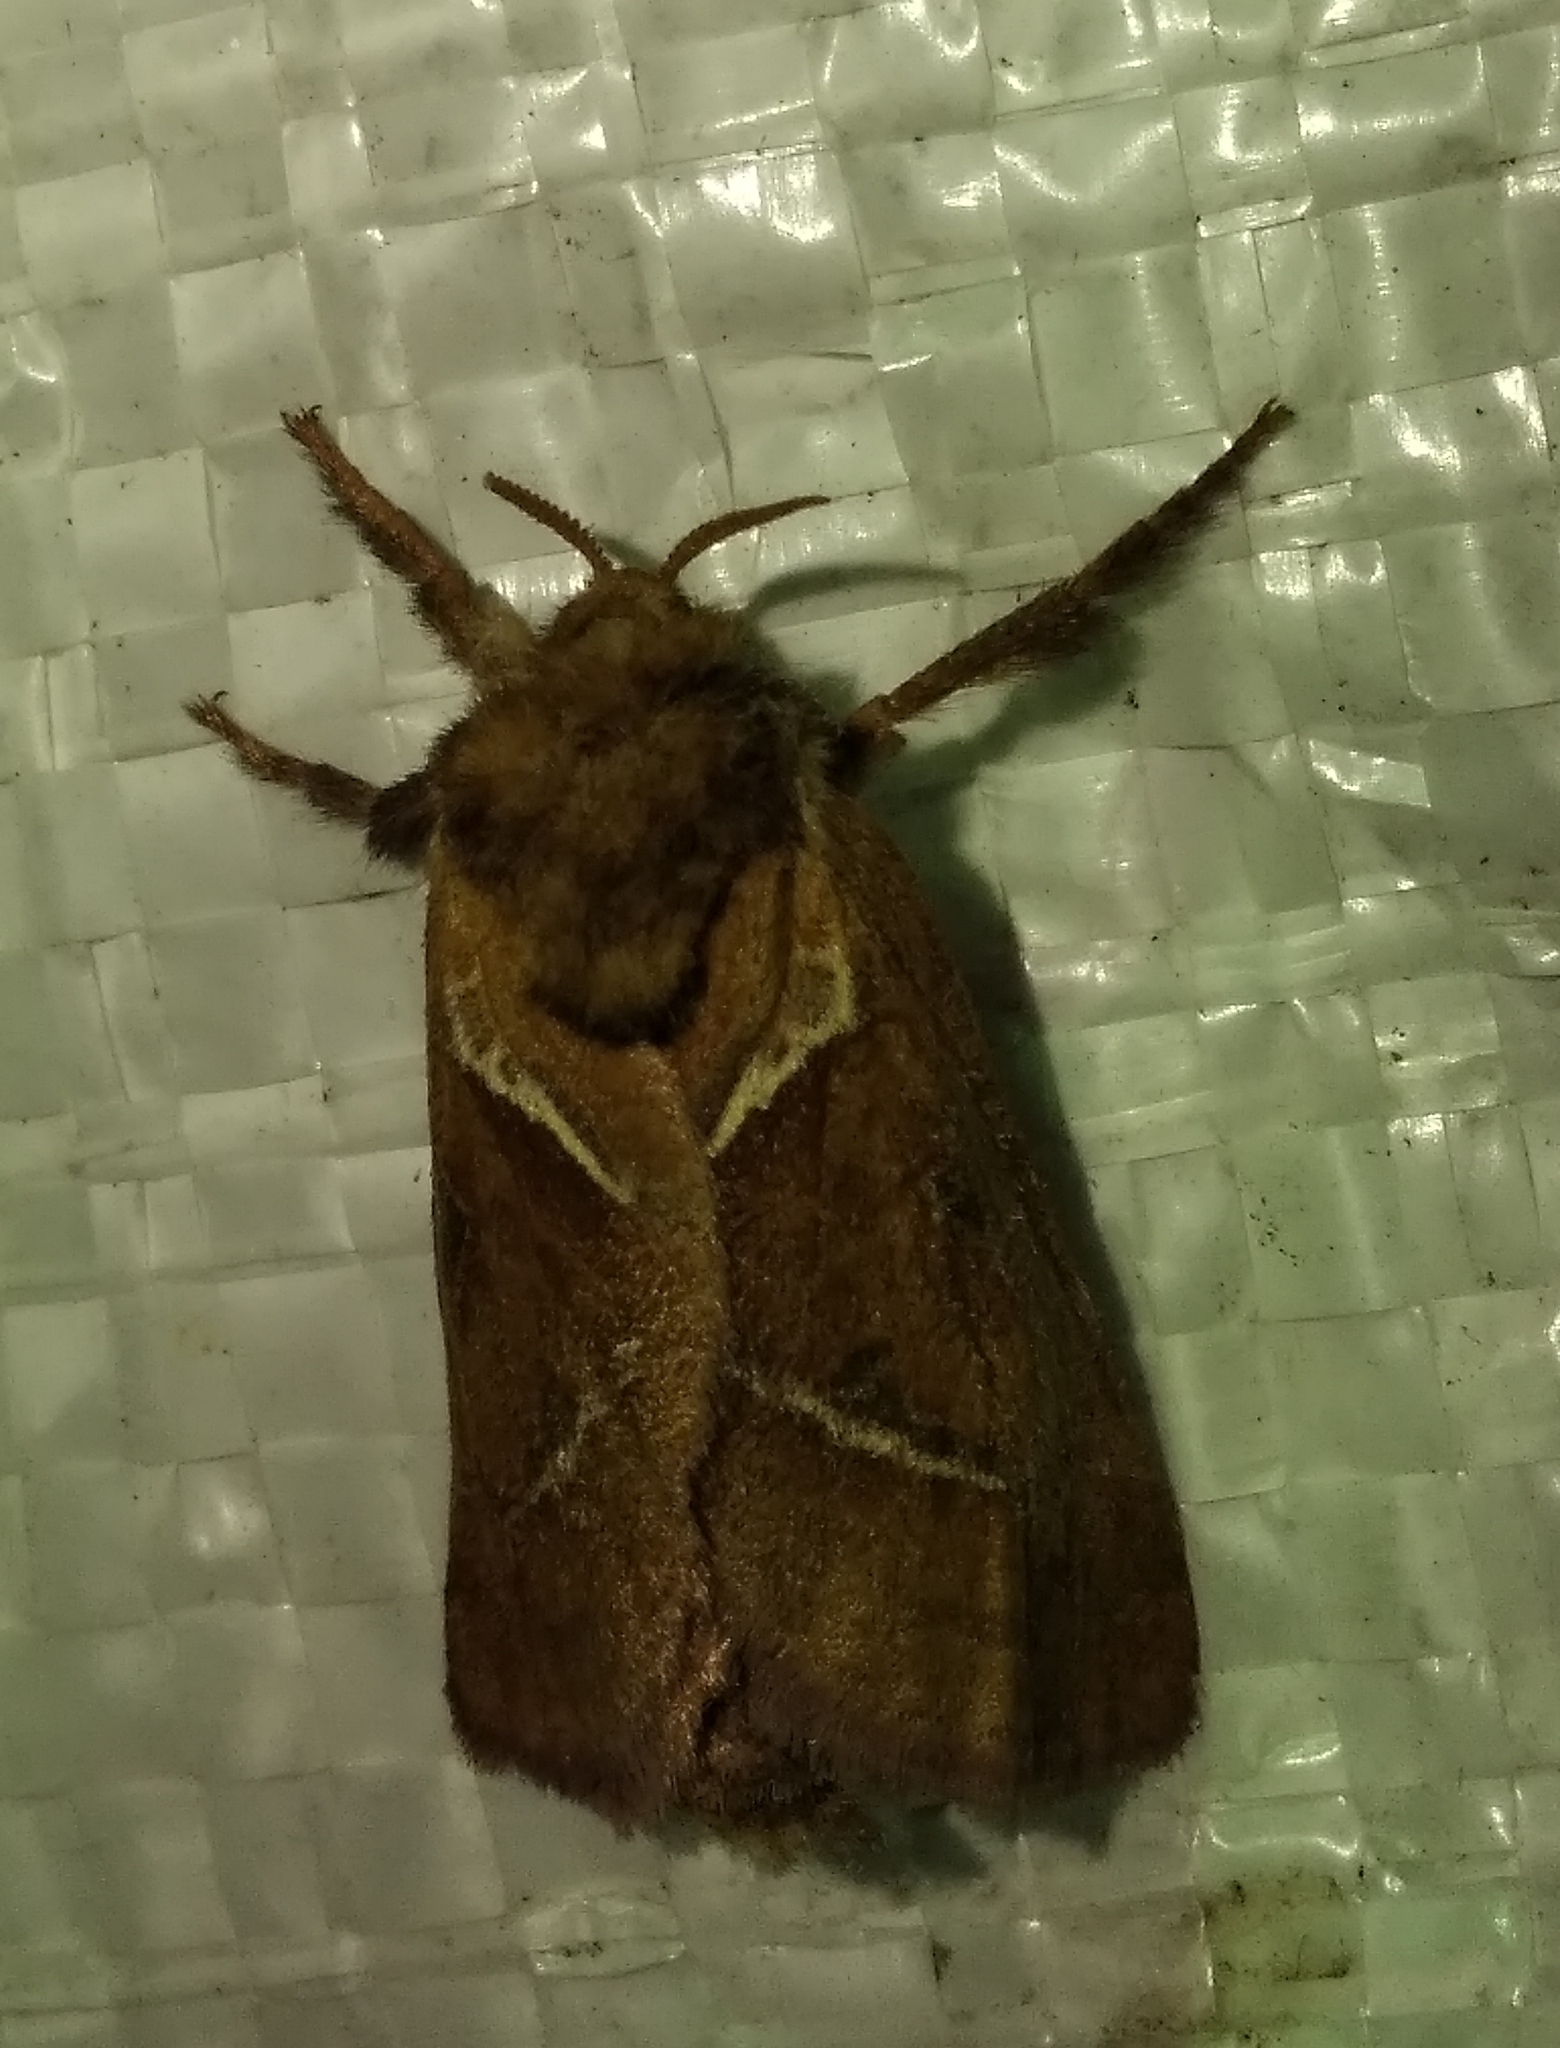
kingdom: Animalia
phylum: Arthropoda
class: Insecta
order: Lepidoptera
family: Hepialidae
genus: Triodia
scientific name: Triodia sylvina
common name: Orange swift
